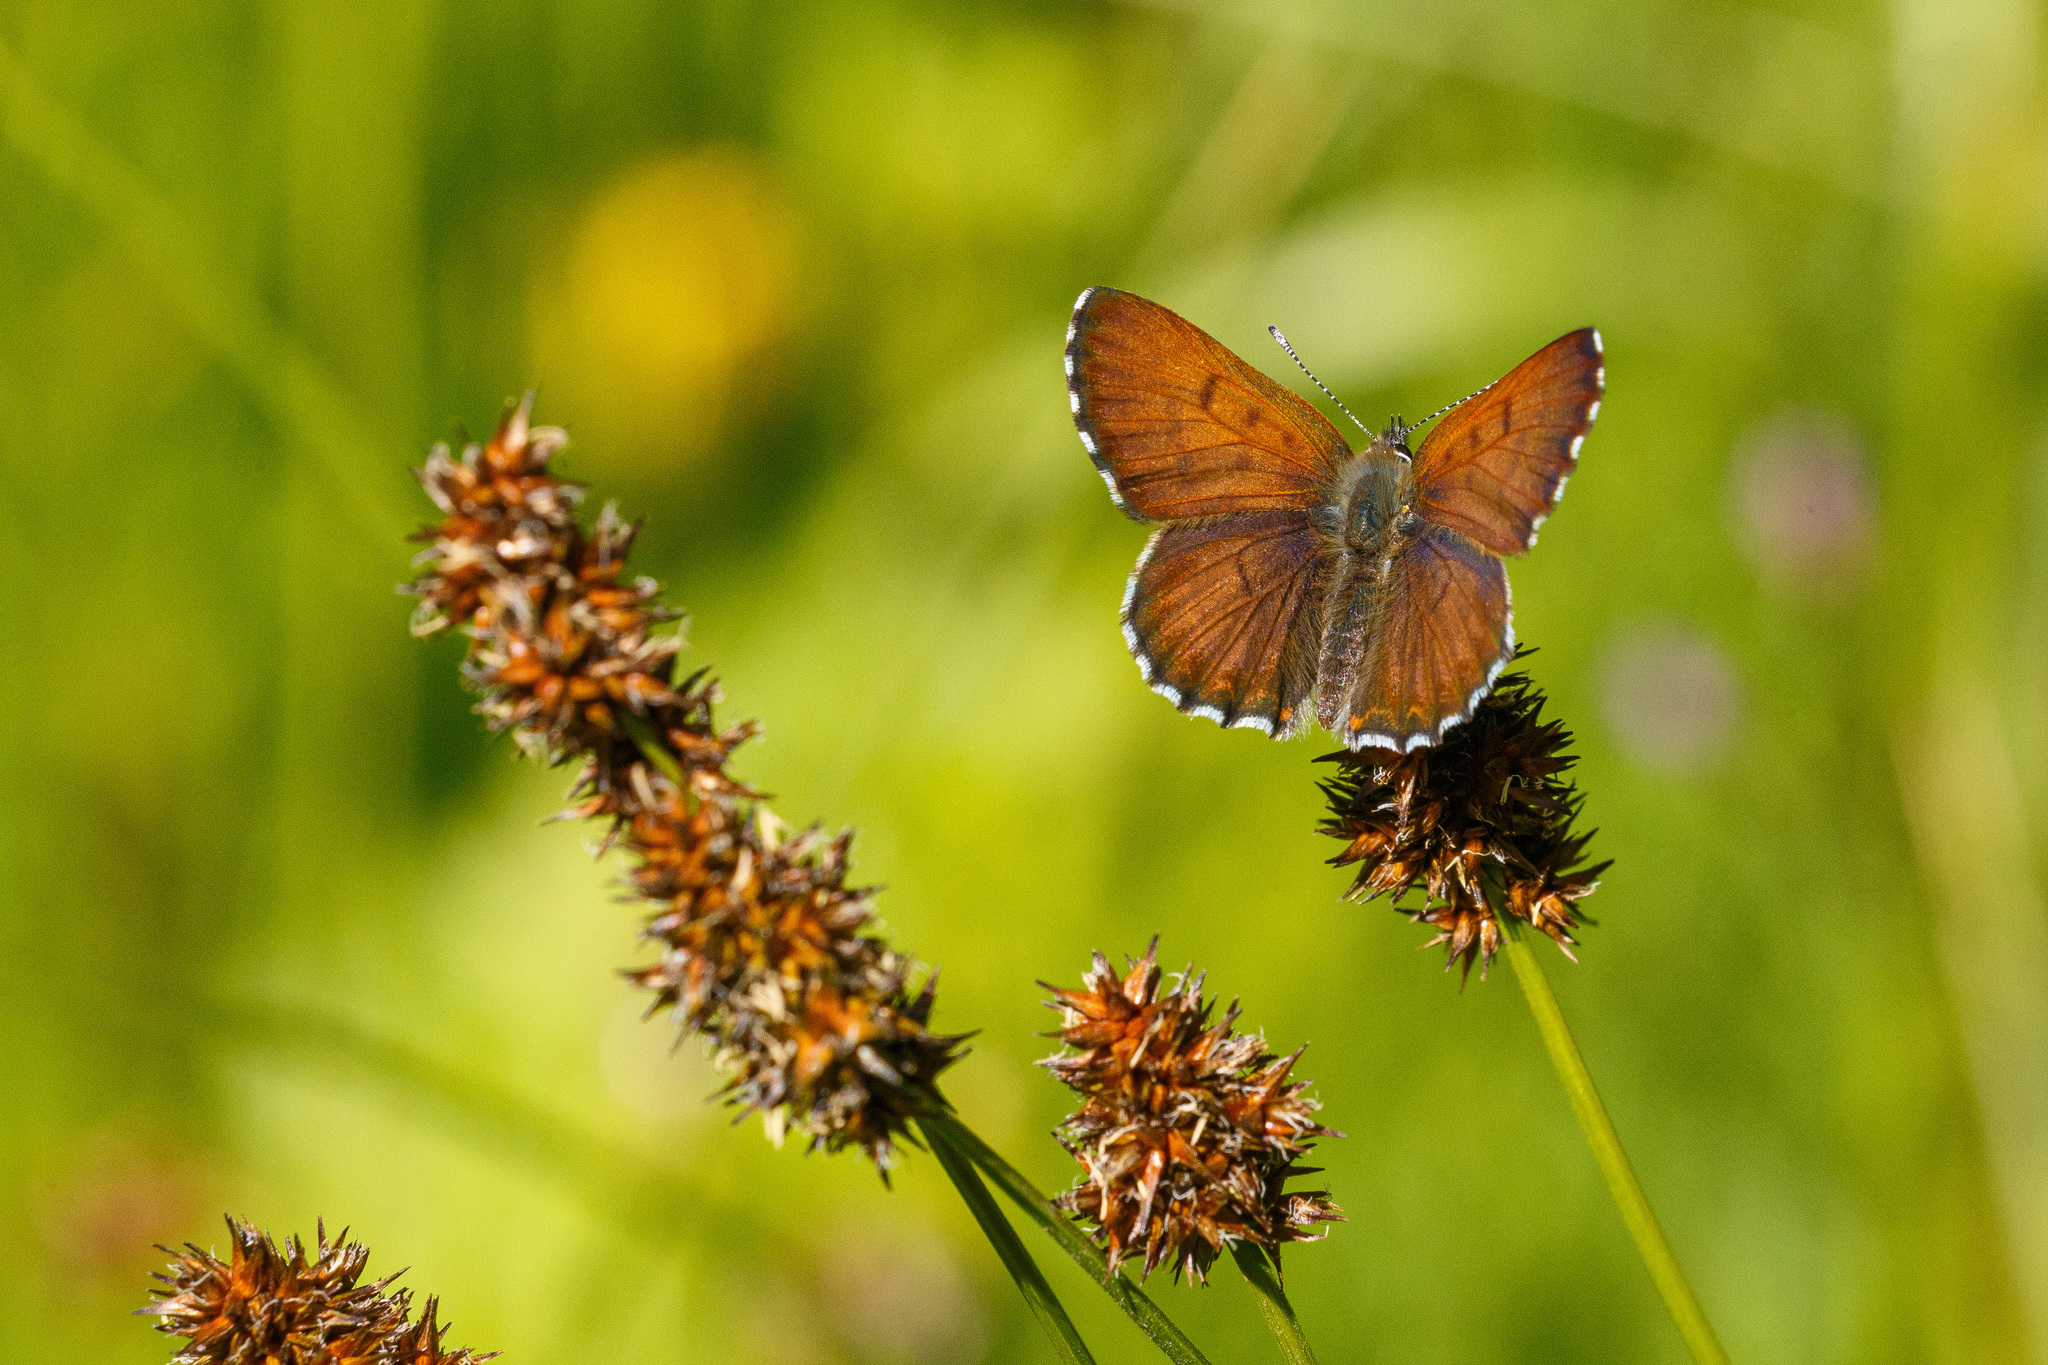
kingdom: Animalia
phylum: Arthropoda
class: Insecta
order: Lepidoptera
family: Lycaenidae
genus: Tharsalea
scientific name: Tharsalea mariposa
